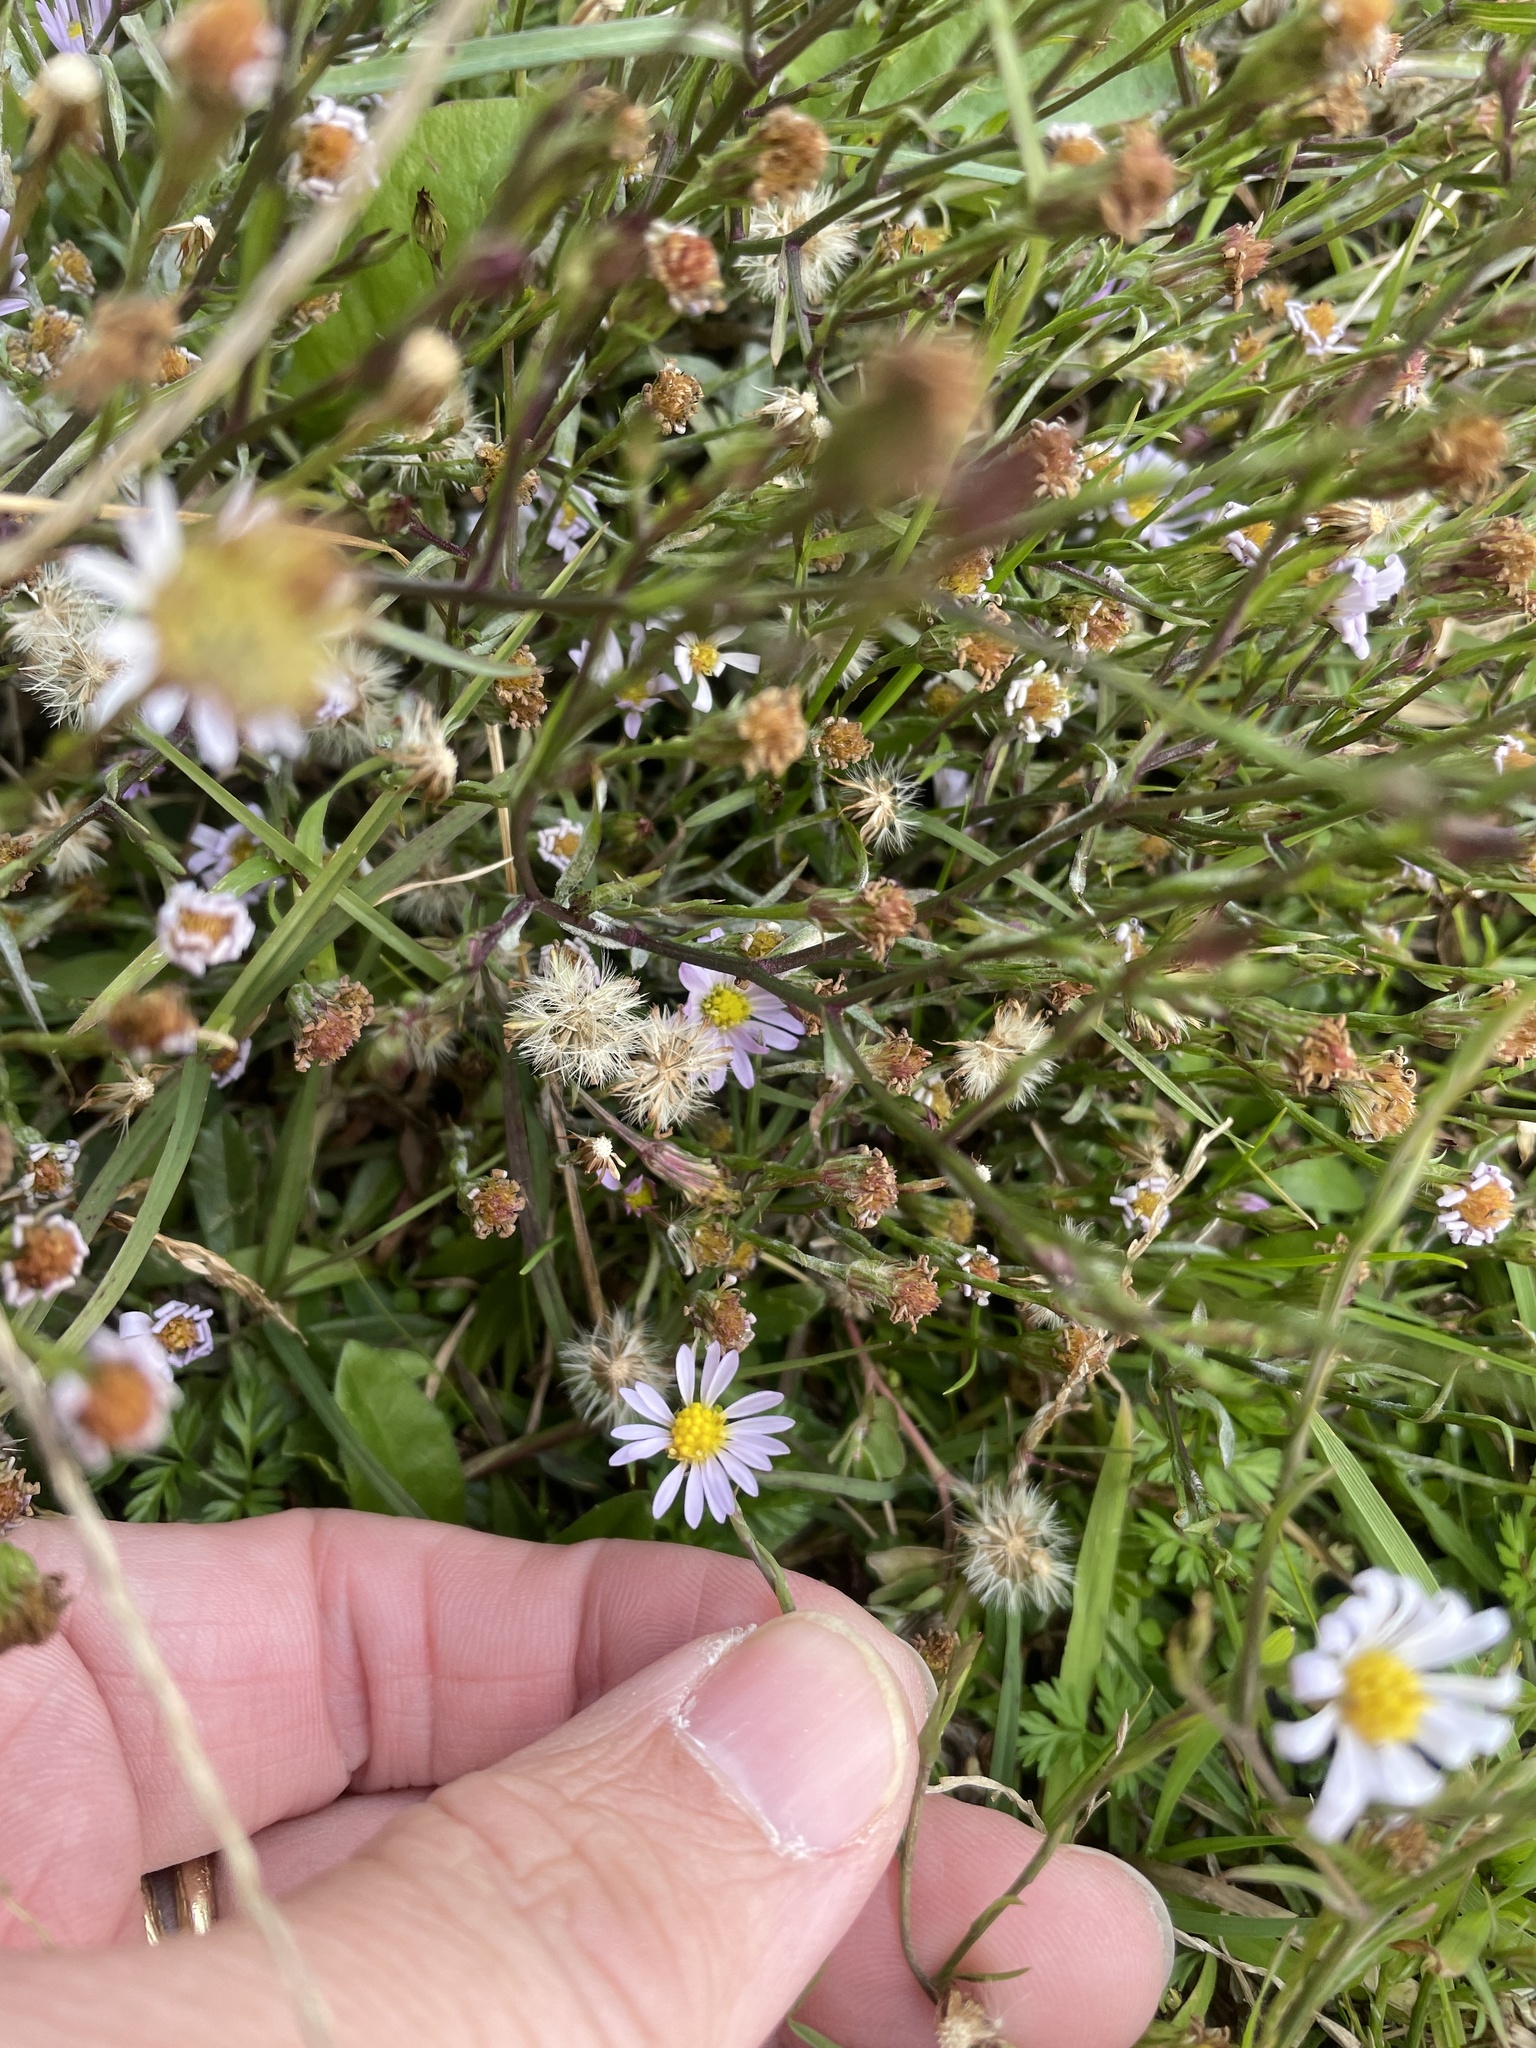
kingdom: Plantae
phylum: Tracheophyta
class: Magnoliopsida
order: Asterales
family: Asteraceae
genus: Symphyotrichum
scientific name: Symphyotrichum divaricatum
